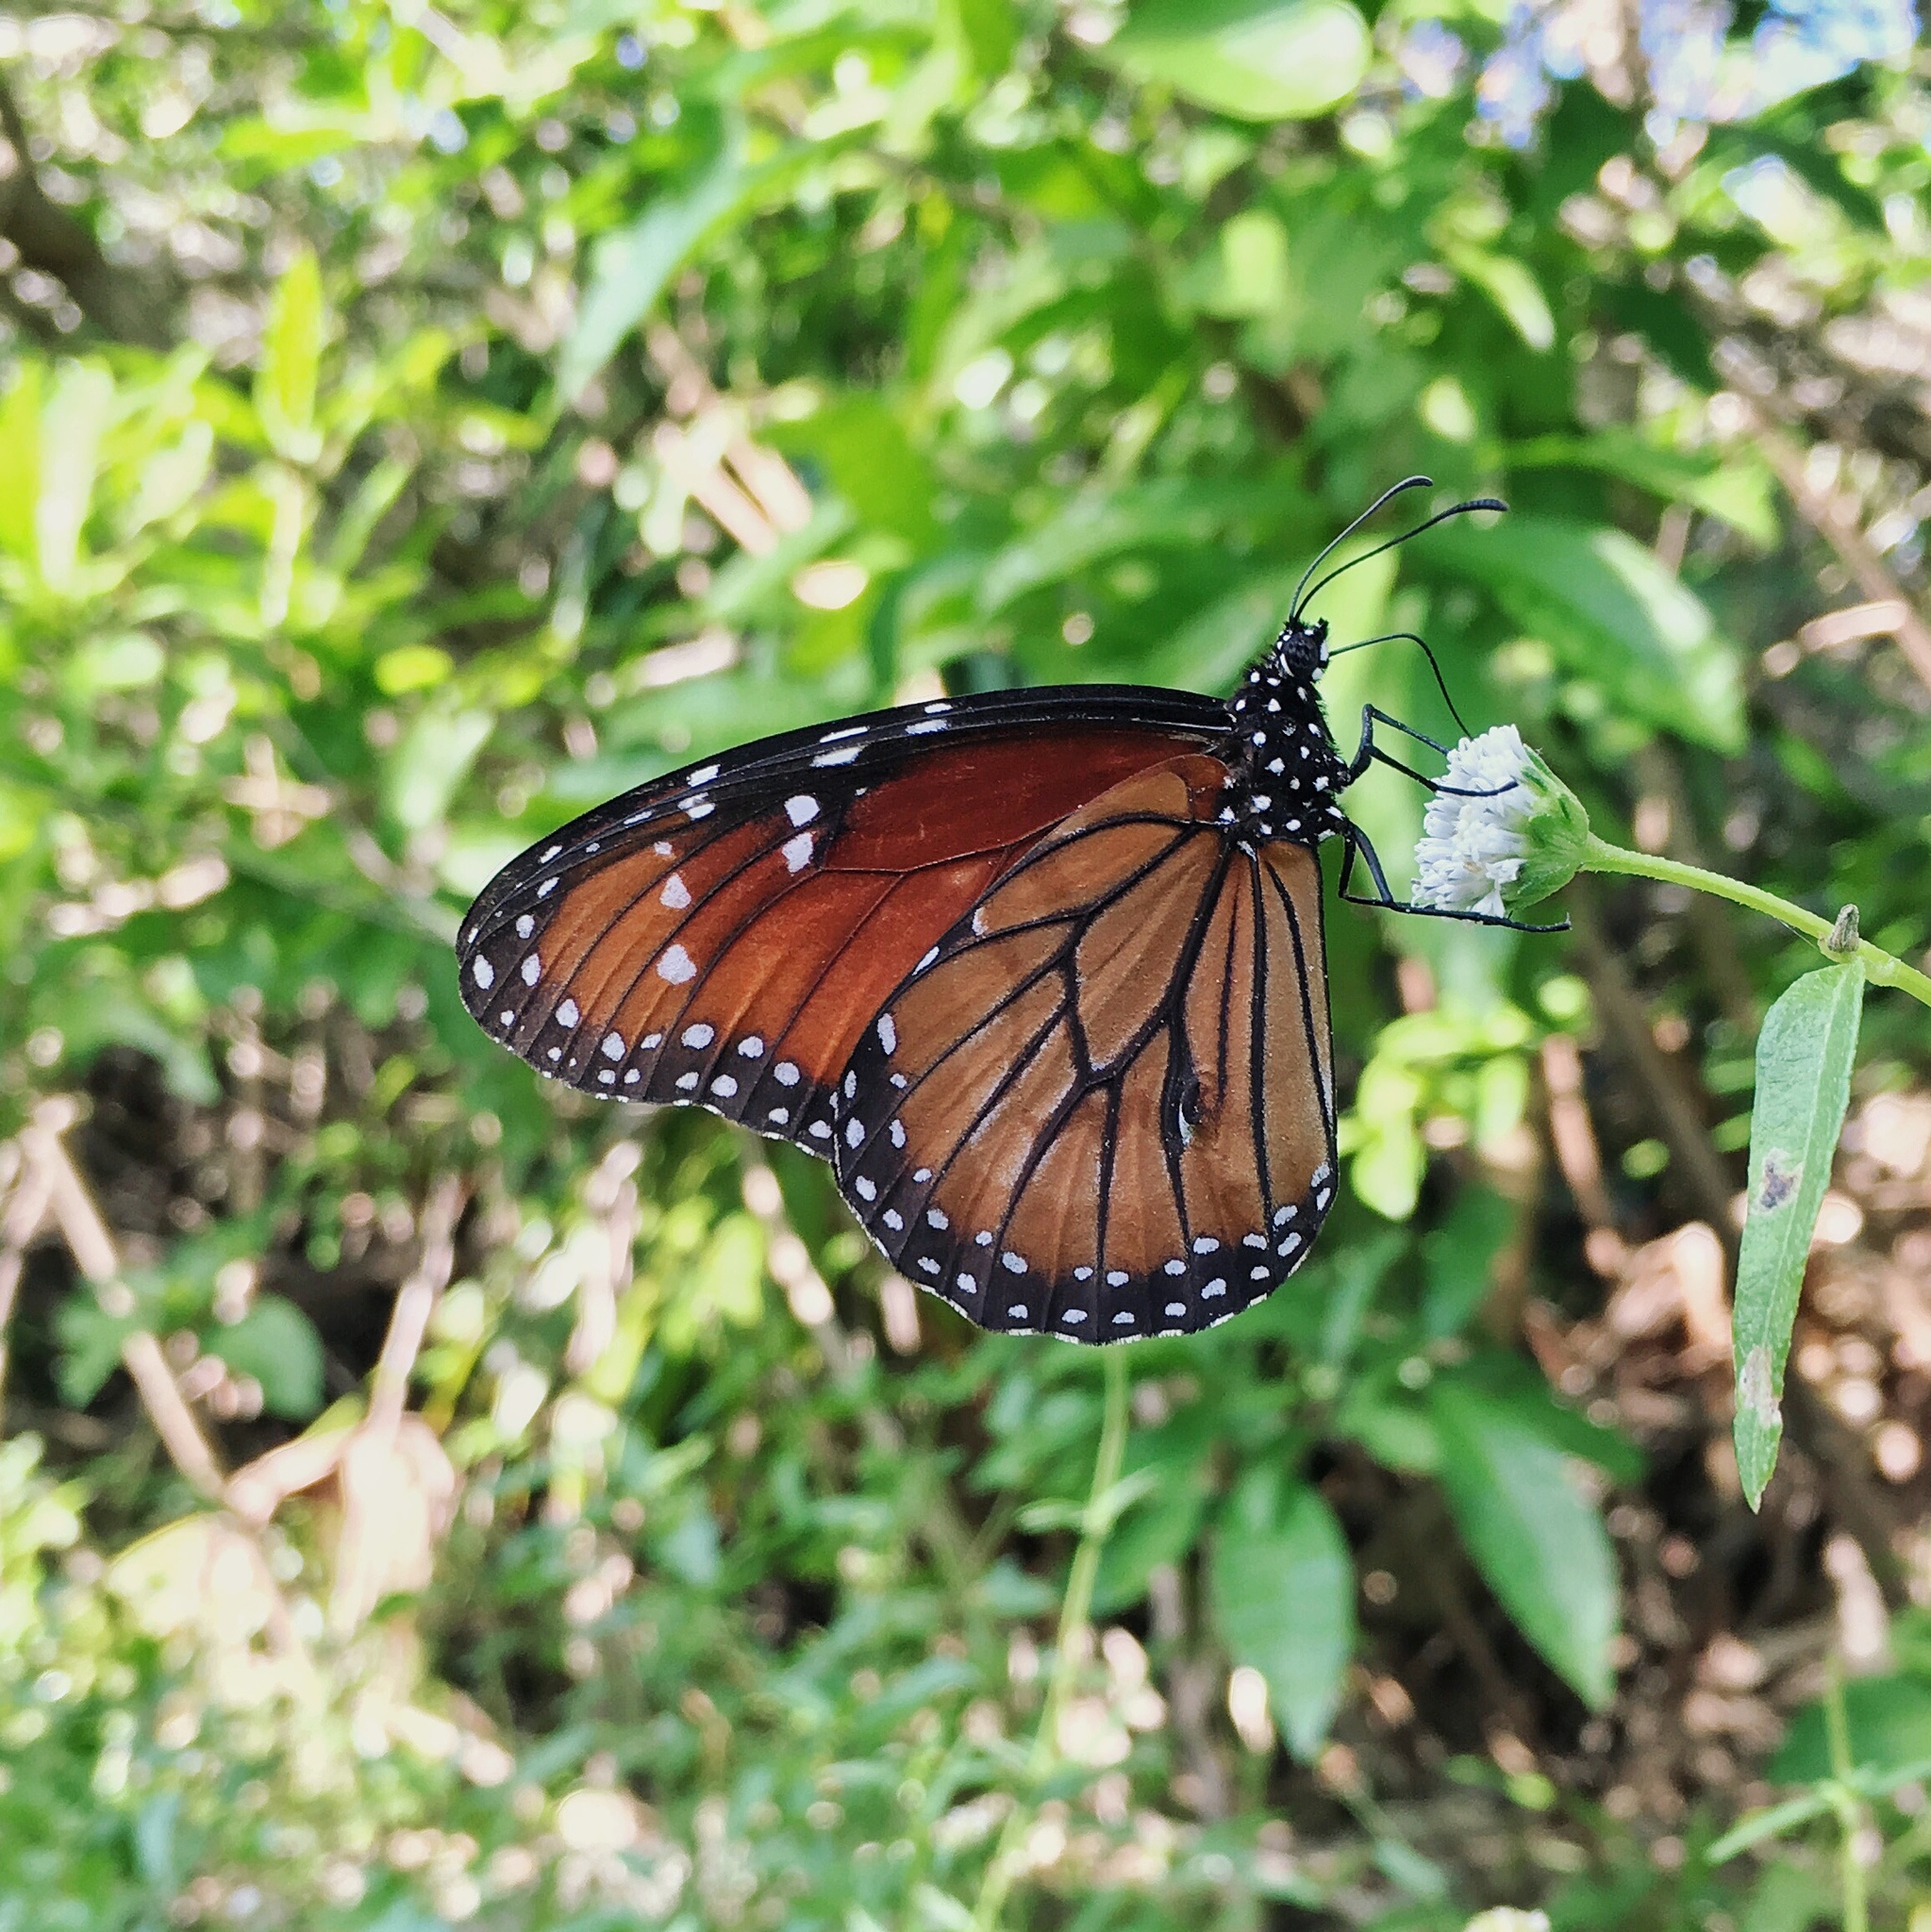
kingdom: Animalia
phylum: Arthropoda
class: Insecta
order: Lepidoptera
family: Nymphalidae
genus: Danaus
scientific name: Danaus eresimus
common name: Soldier
